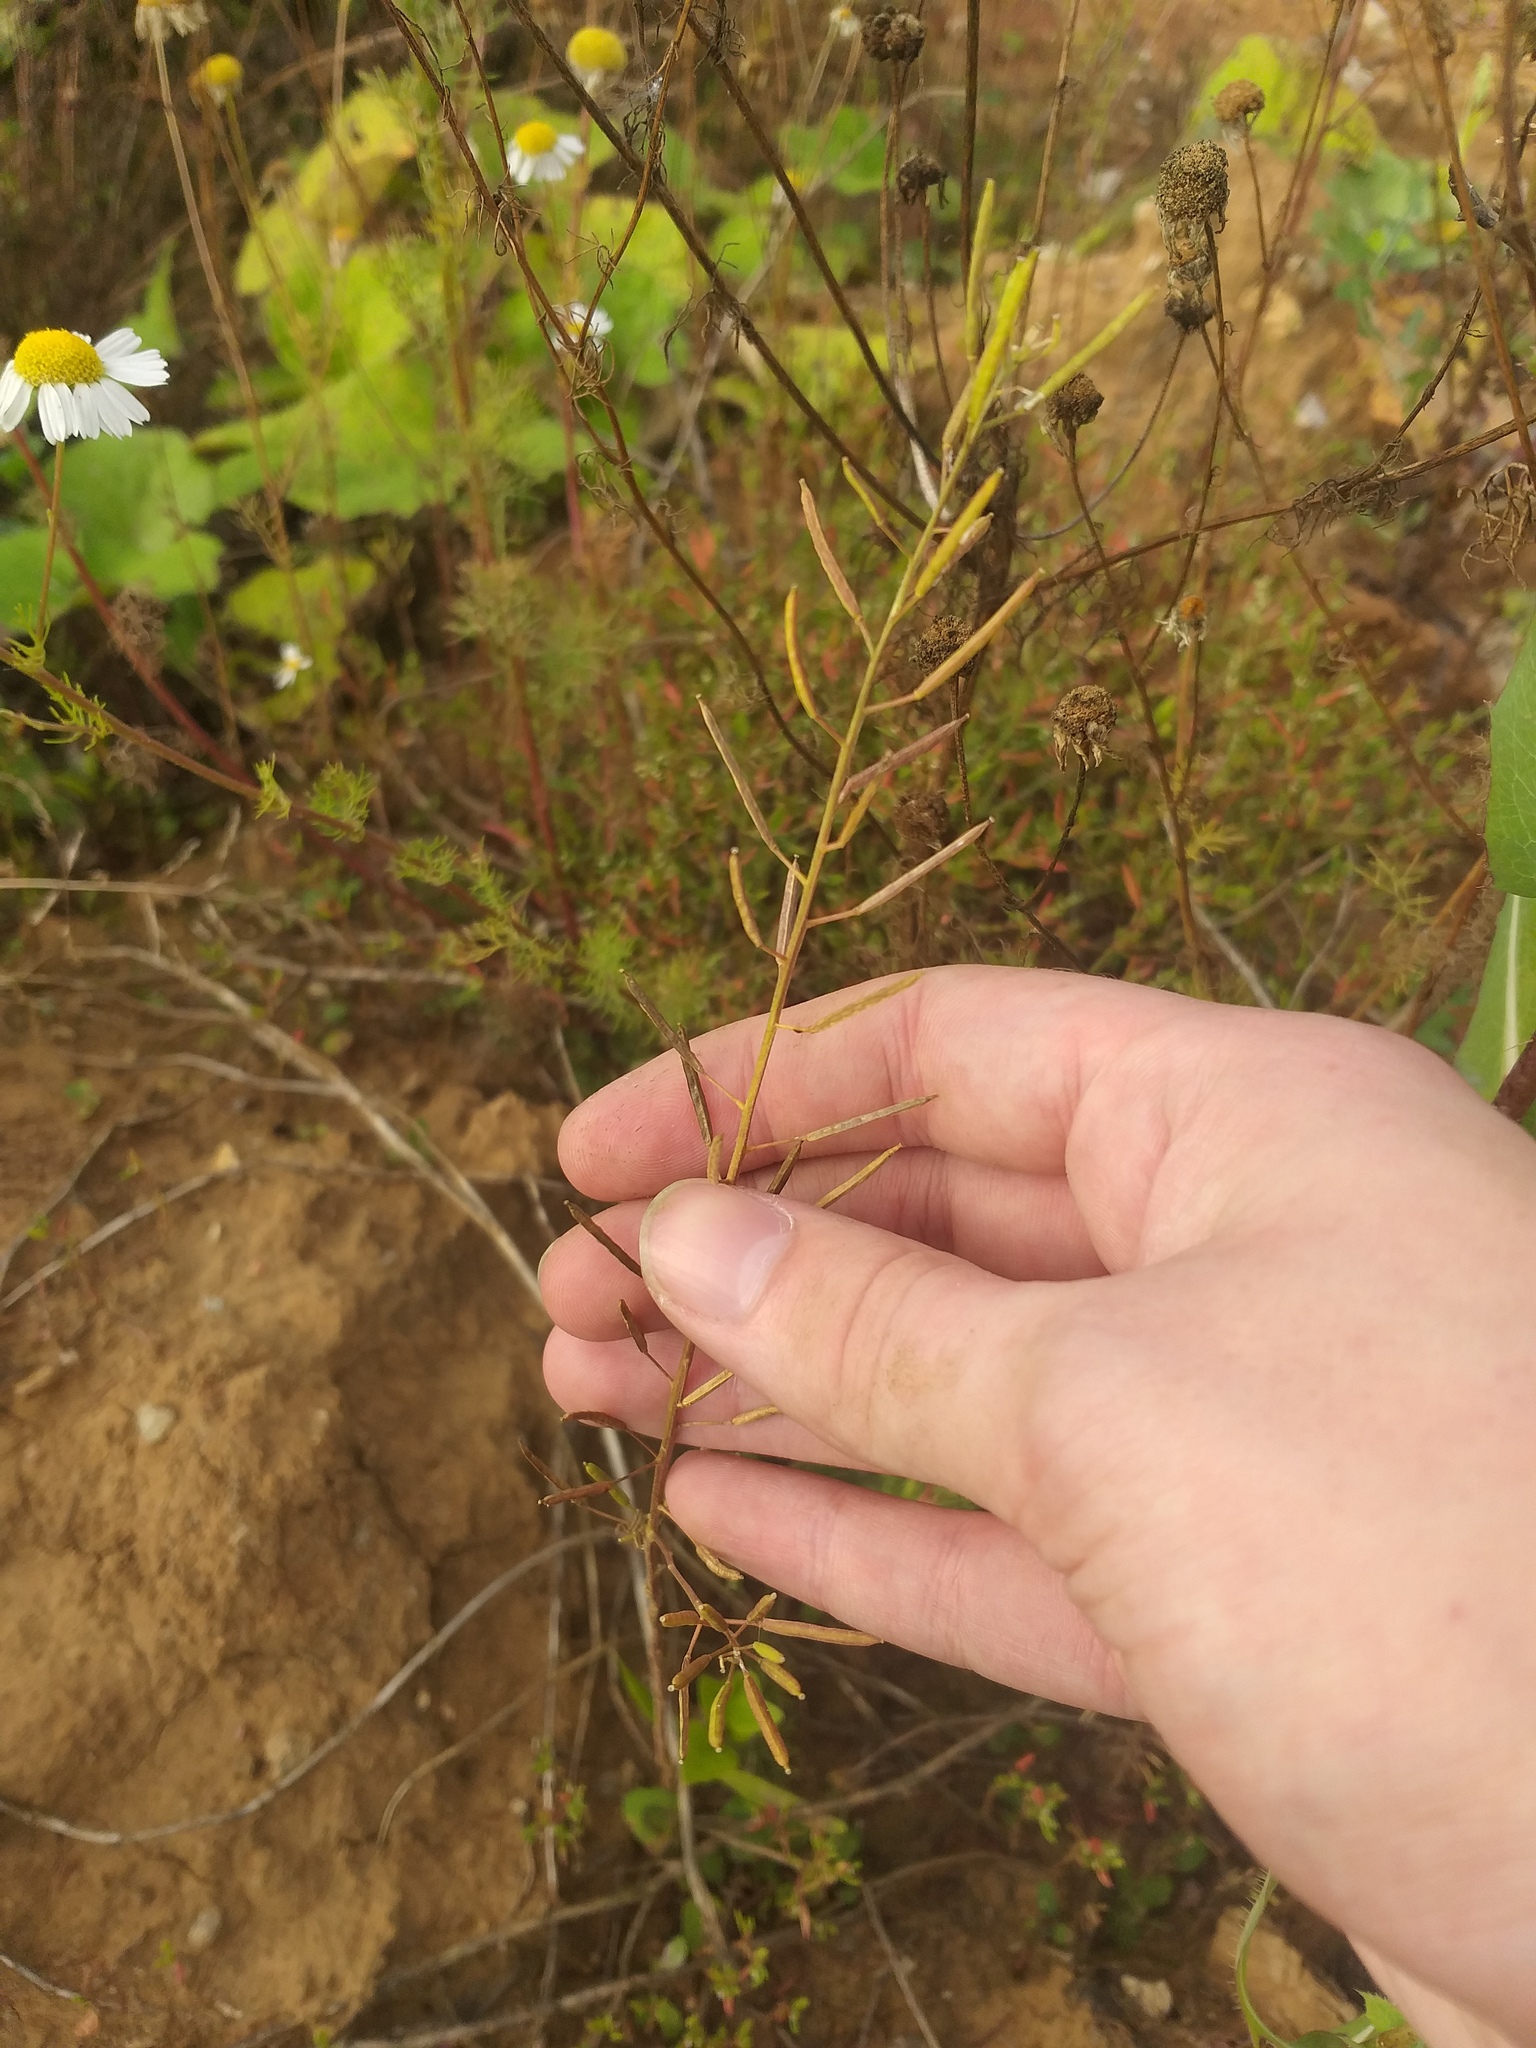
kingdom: Plantae
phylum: Tracheophyta
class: Magnoliopsida
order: Brassicales
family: Brassicaceae
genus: Erysimum
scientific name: Erysimum cheiranthoides
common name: Treacle mustard
